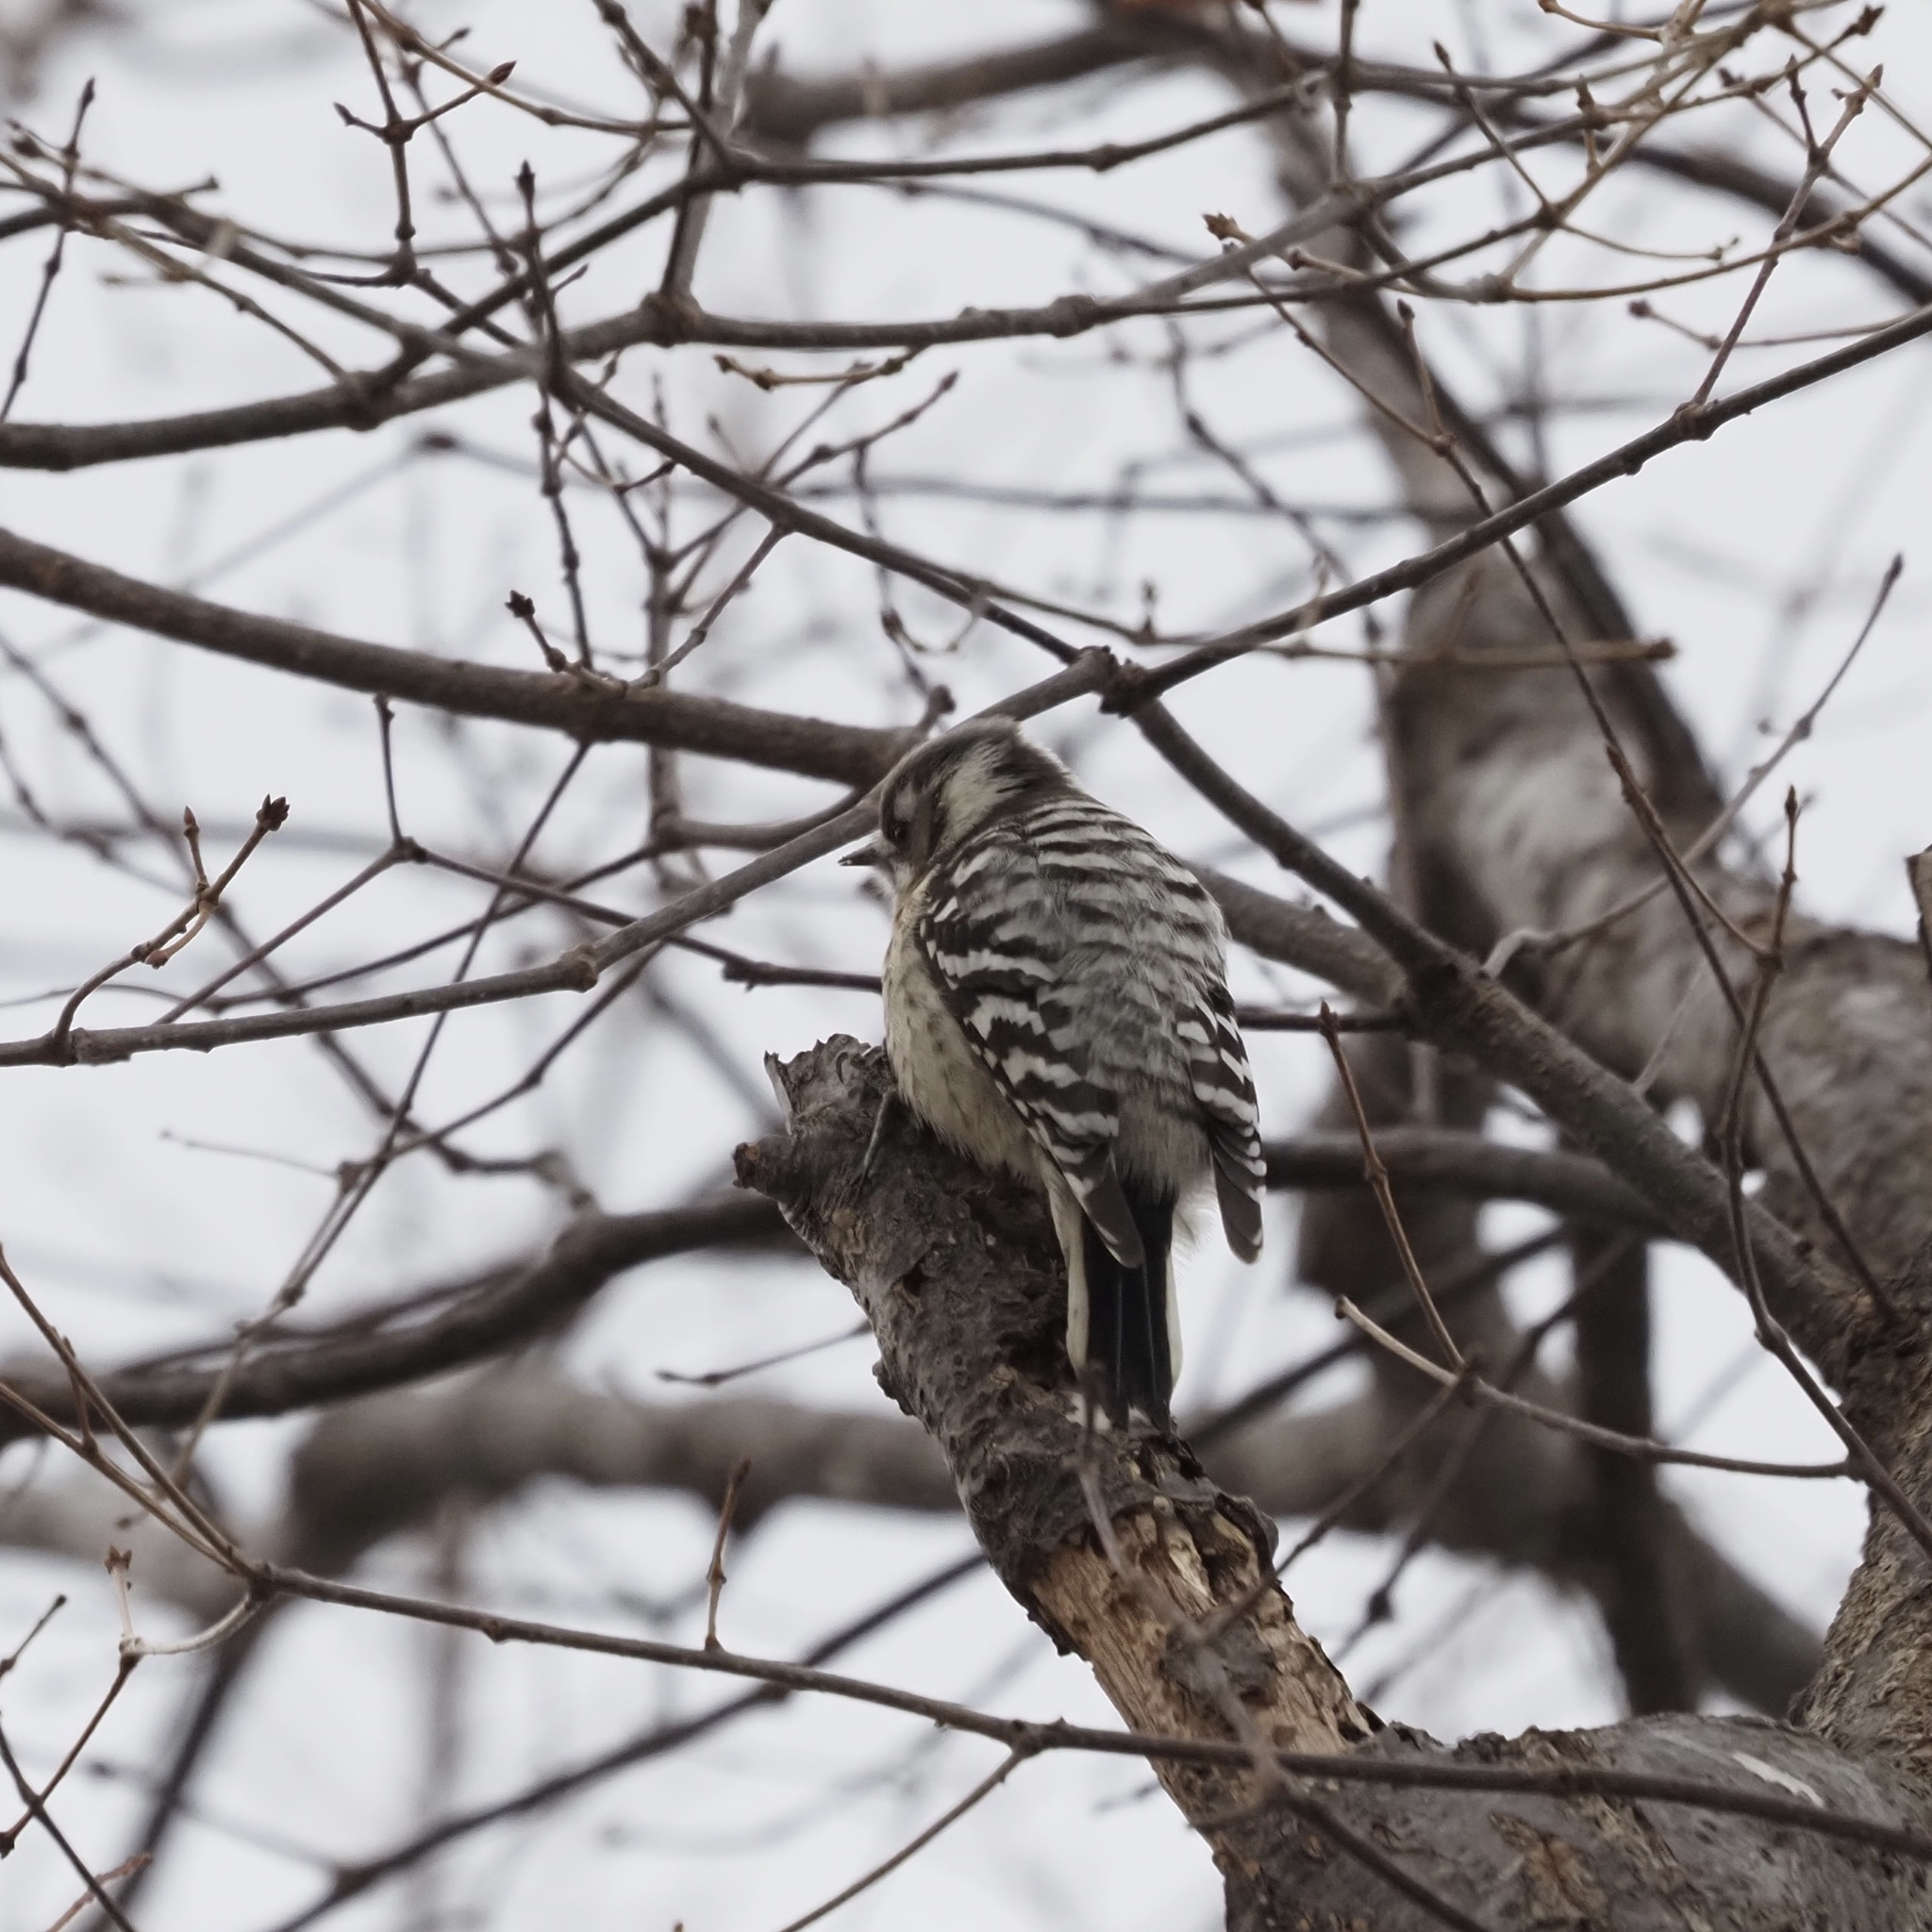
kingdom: Animalia
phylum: Chordata
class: Aves
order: Piciformes
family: Picidae
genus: Yungipicus
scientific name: Yungipicus kizuki
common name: Japanese pygmy woodpecker
